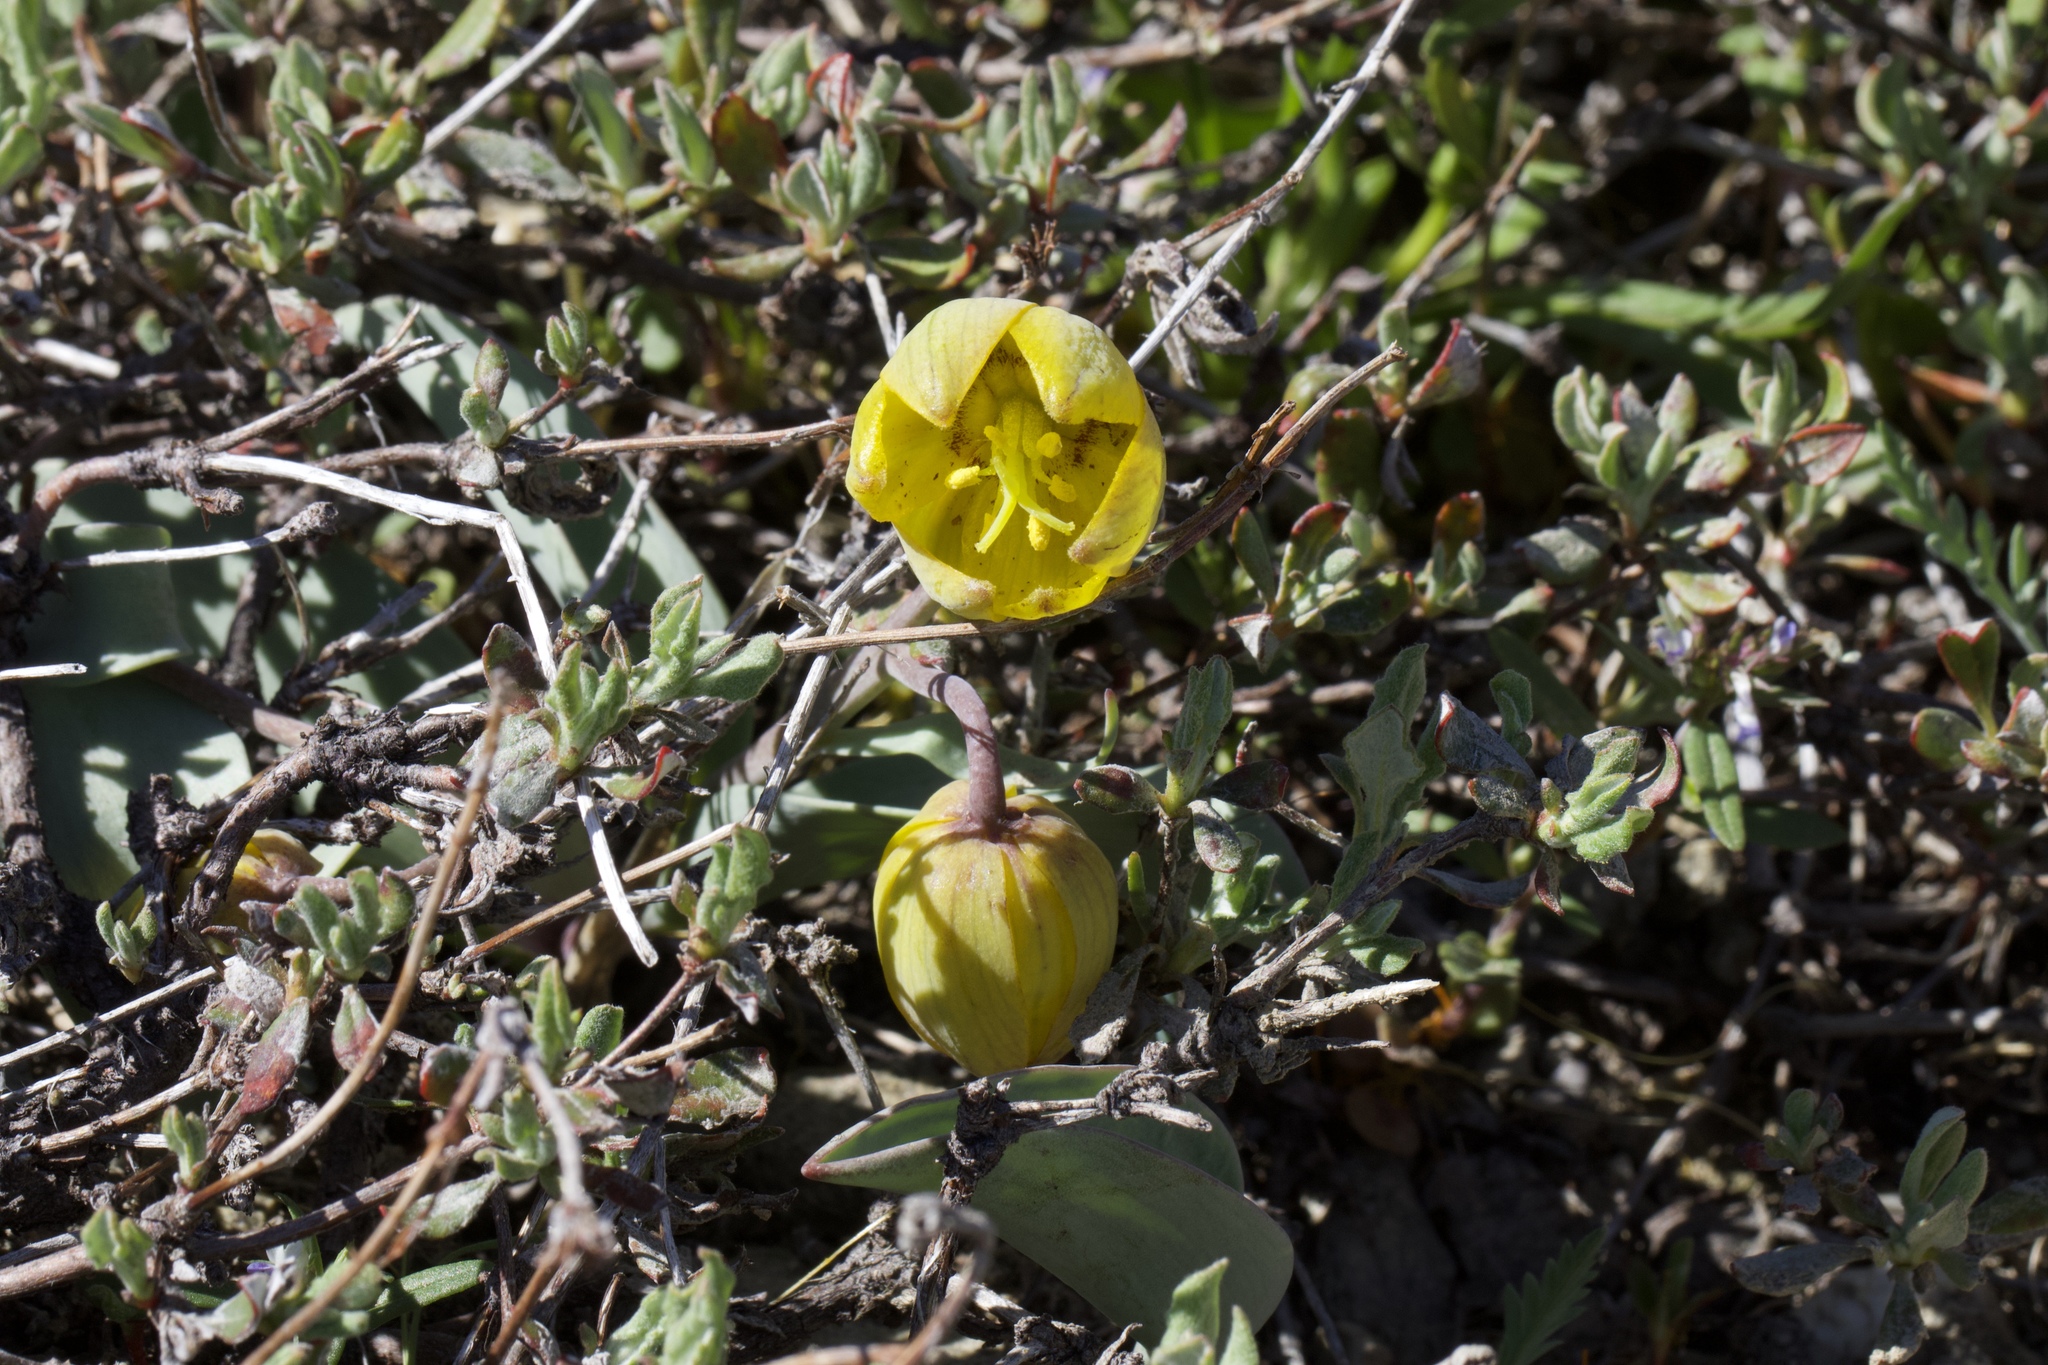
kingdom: Plantae
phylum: Tracheophyta
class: Liliopsida
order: Liliales
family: Liliaceae
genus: Fritillaria
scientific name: Fritillaria glauca
